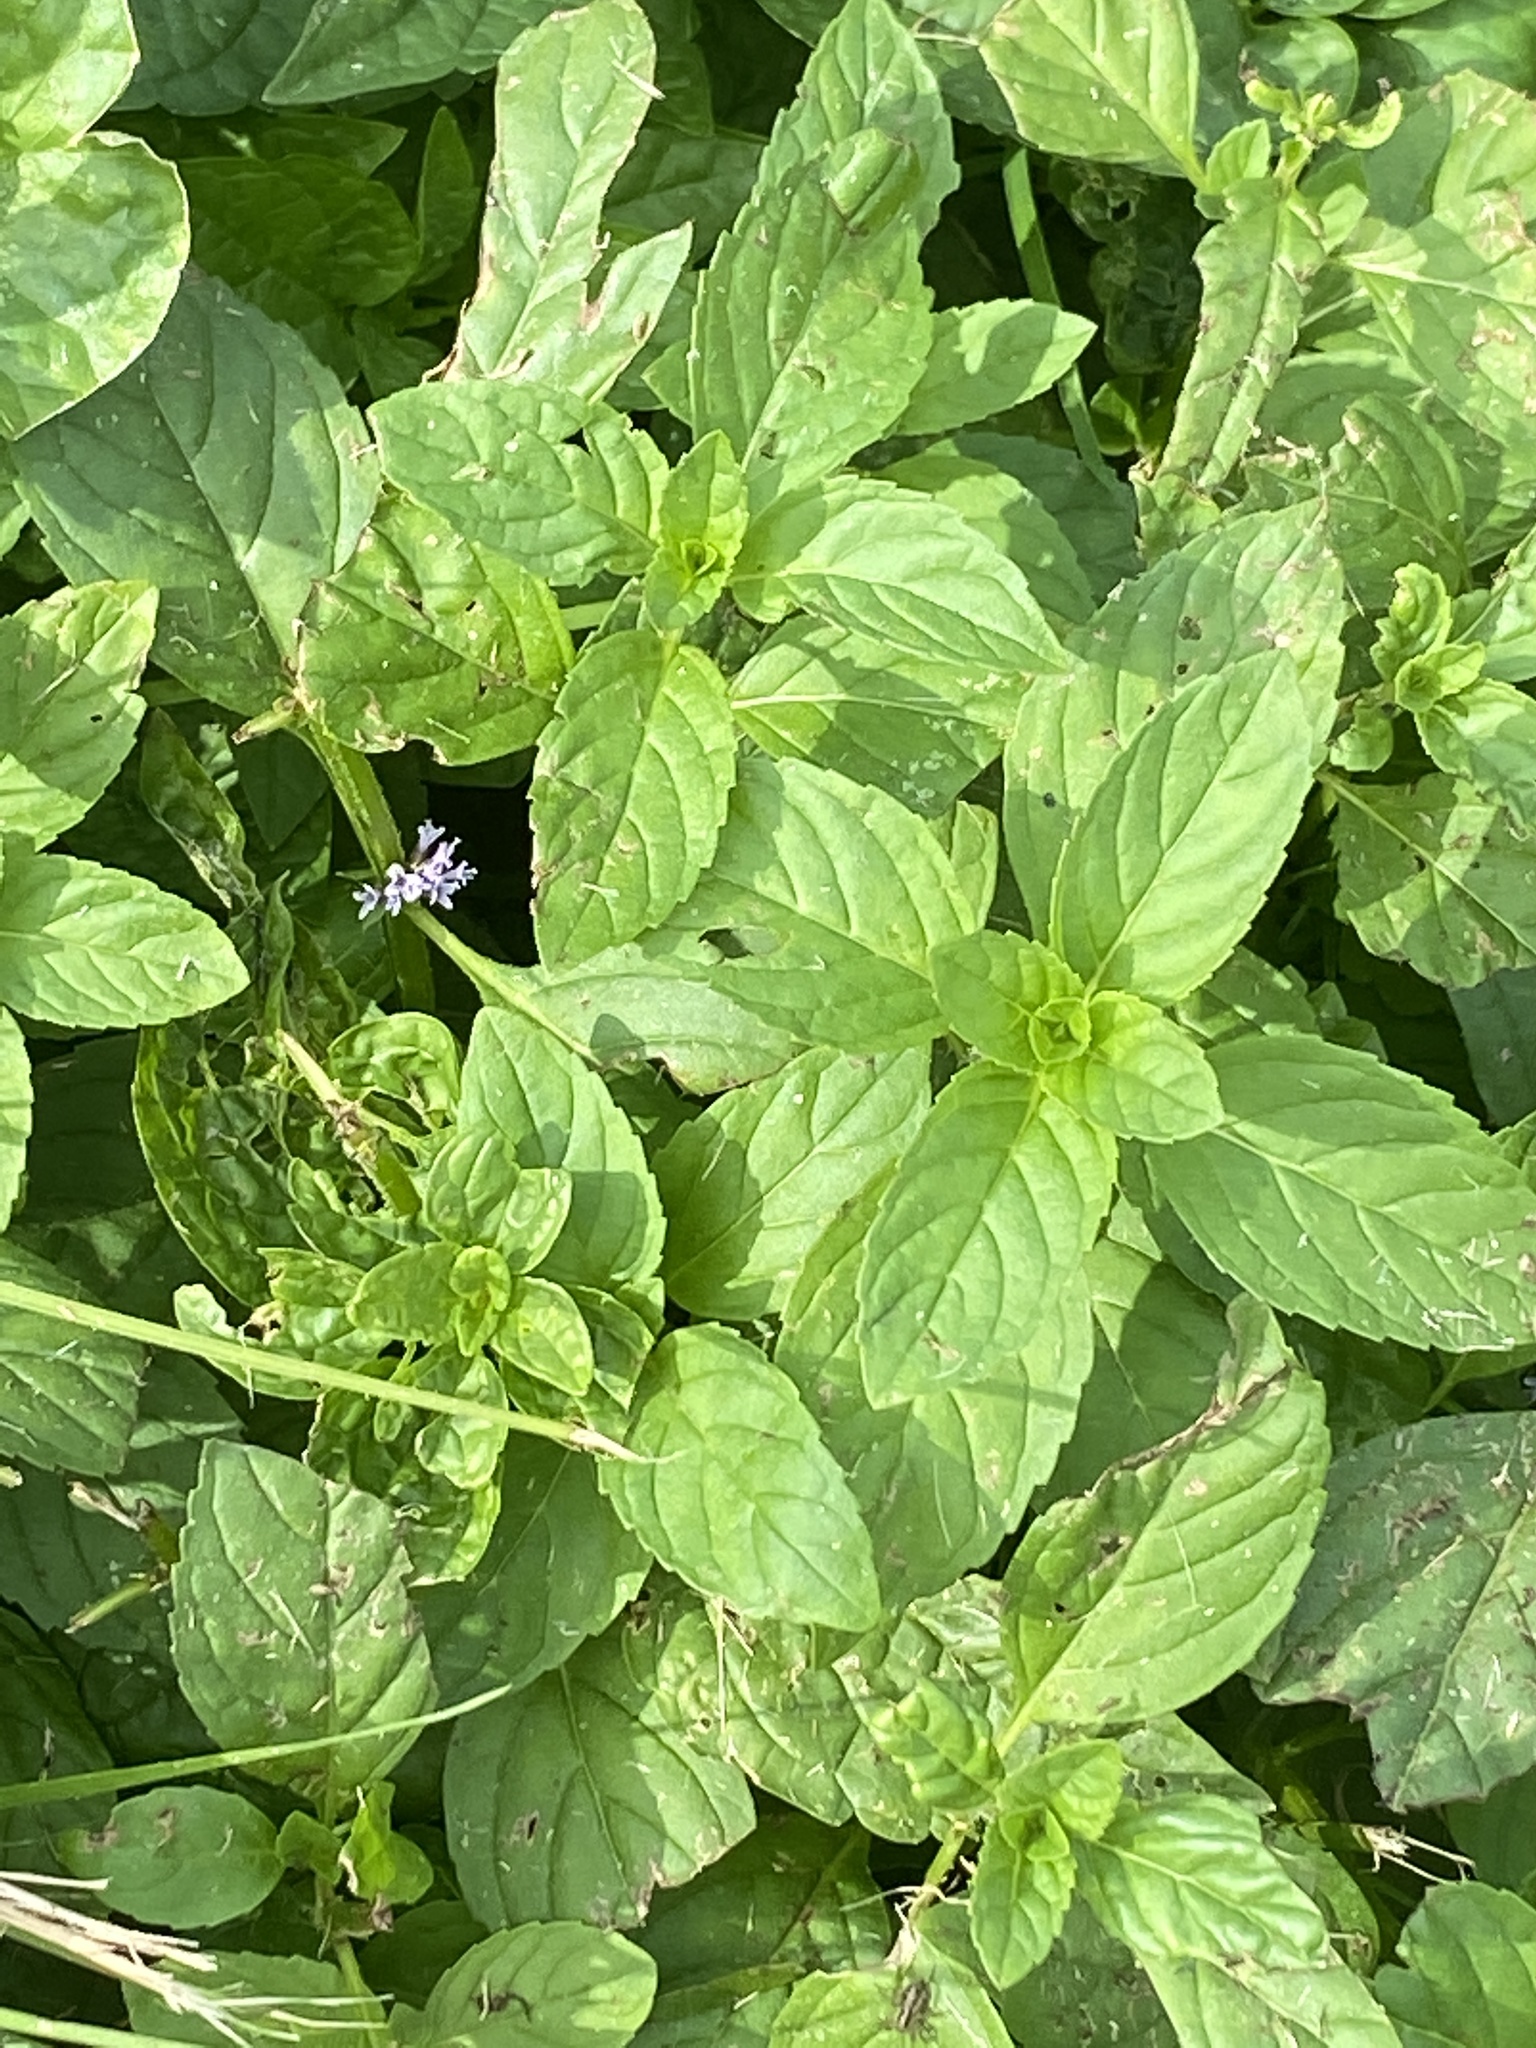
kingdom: Plantae
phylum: Tracheophyta
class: Magnoliopsida
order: Lamiales
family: Lamiaceae
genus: Mentha
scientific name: Mentha arvensis
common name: Corn mint
